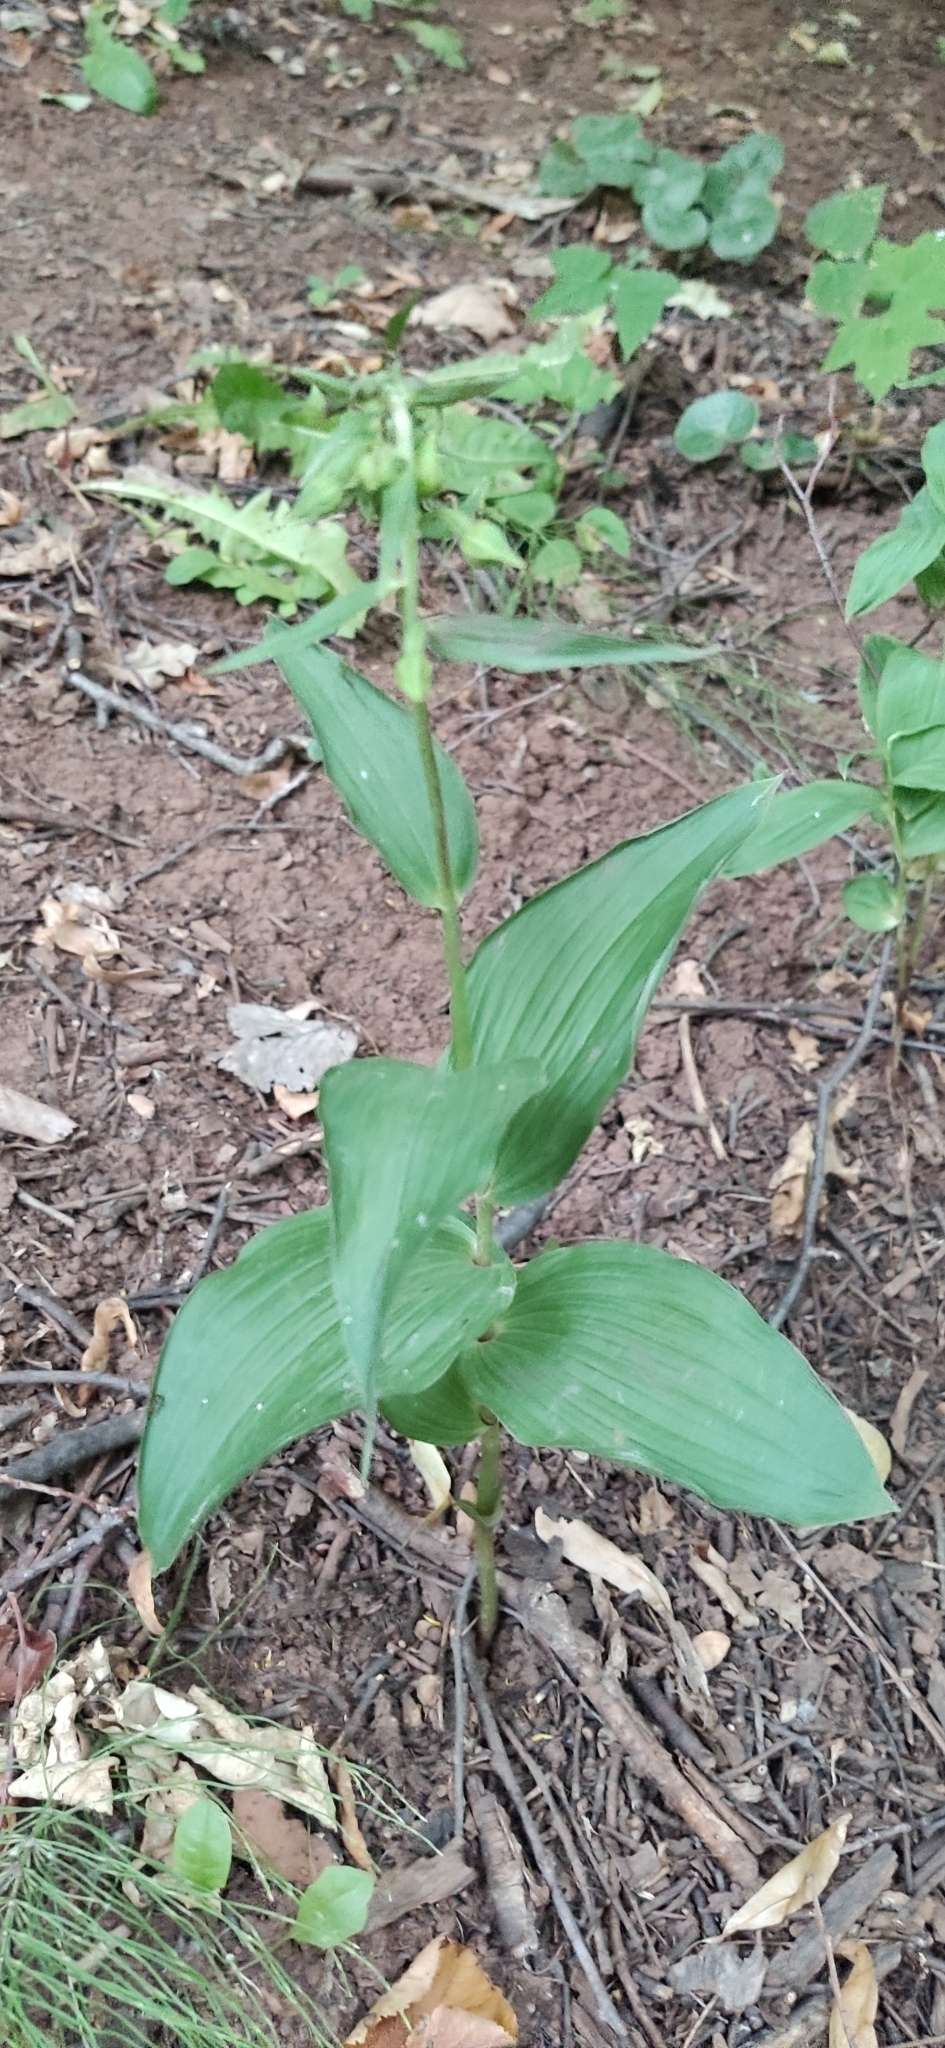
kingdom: Plantae
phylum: Tracheophyta
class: Liliopsida
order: Asparagales
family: Orchidaceae
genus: Epipactis
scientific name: Epipactis helleborine
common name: Broad-leaved helleborine
